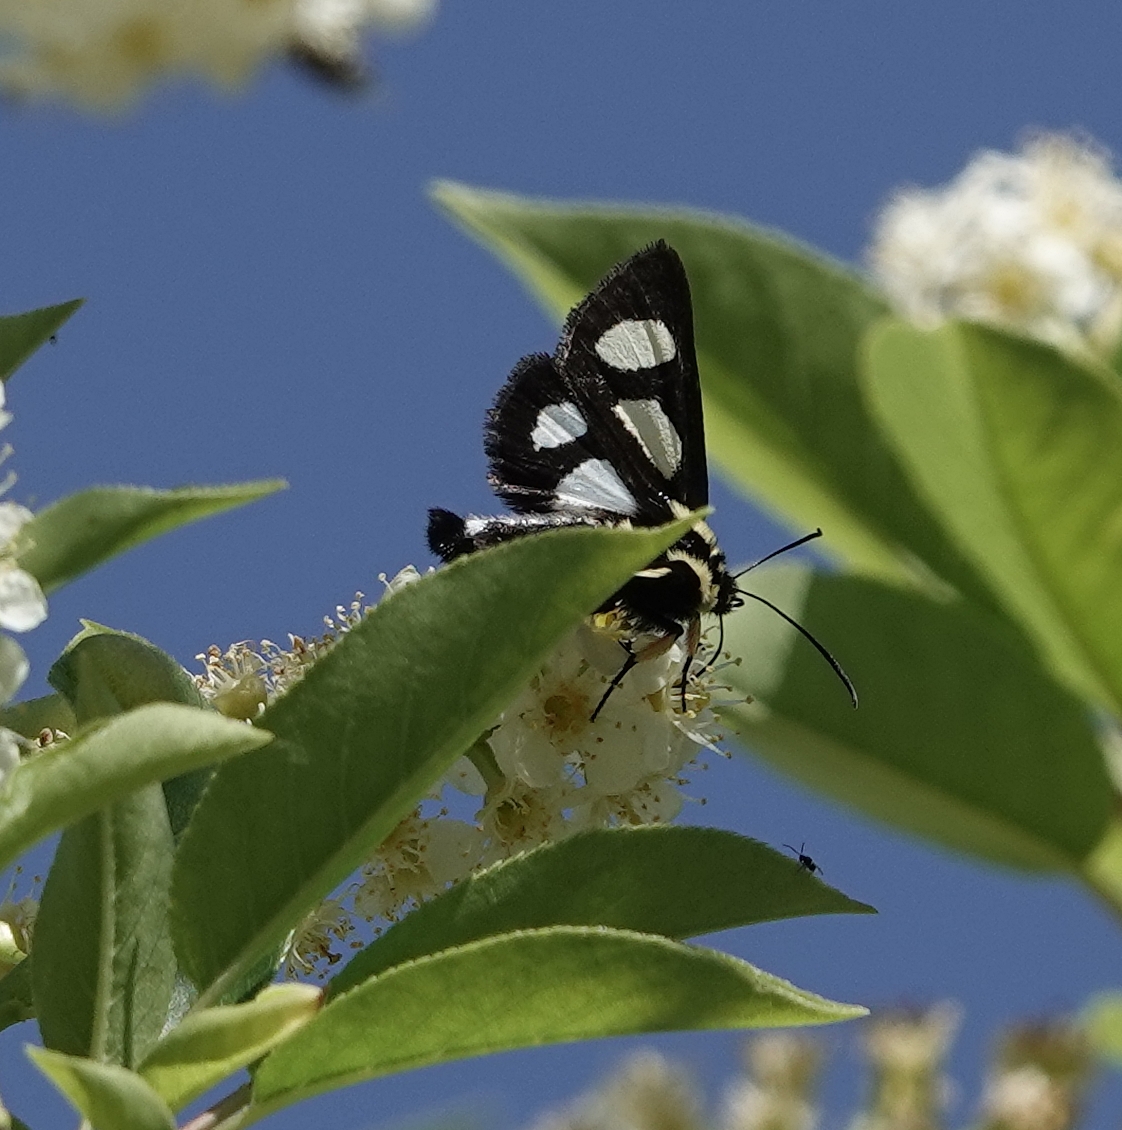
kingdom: Animalia
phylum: Arthropoda
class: Insecta
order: Lepidoptera
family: Noctuidae
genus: Alypia
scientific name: Alypia octomaculata
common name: Eight-spotted forester
